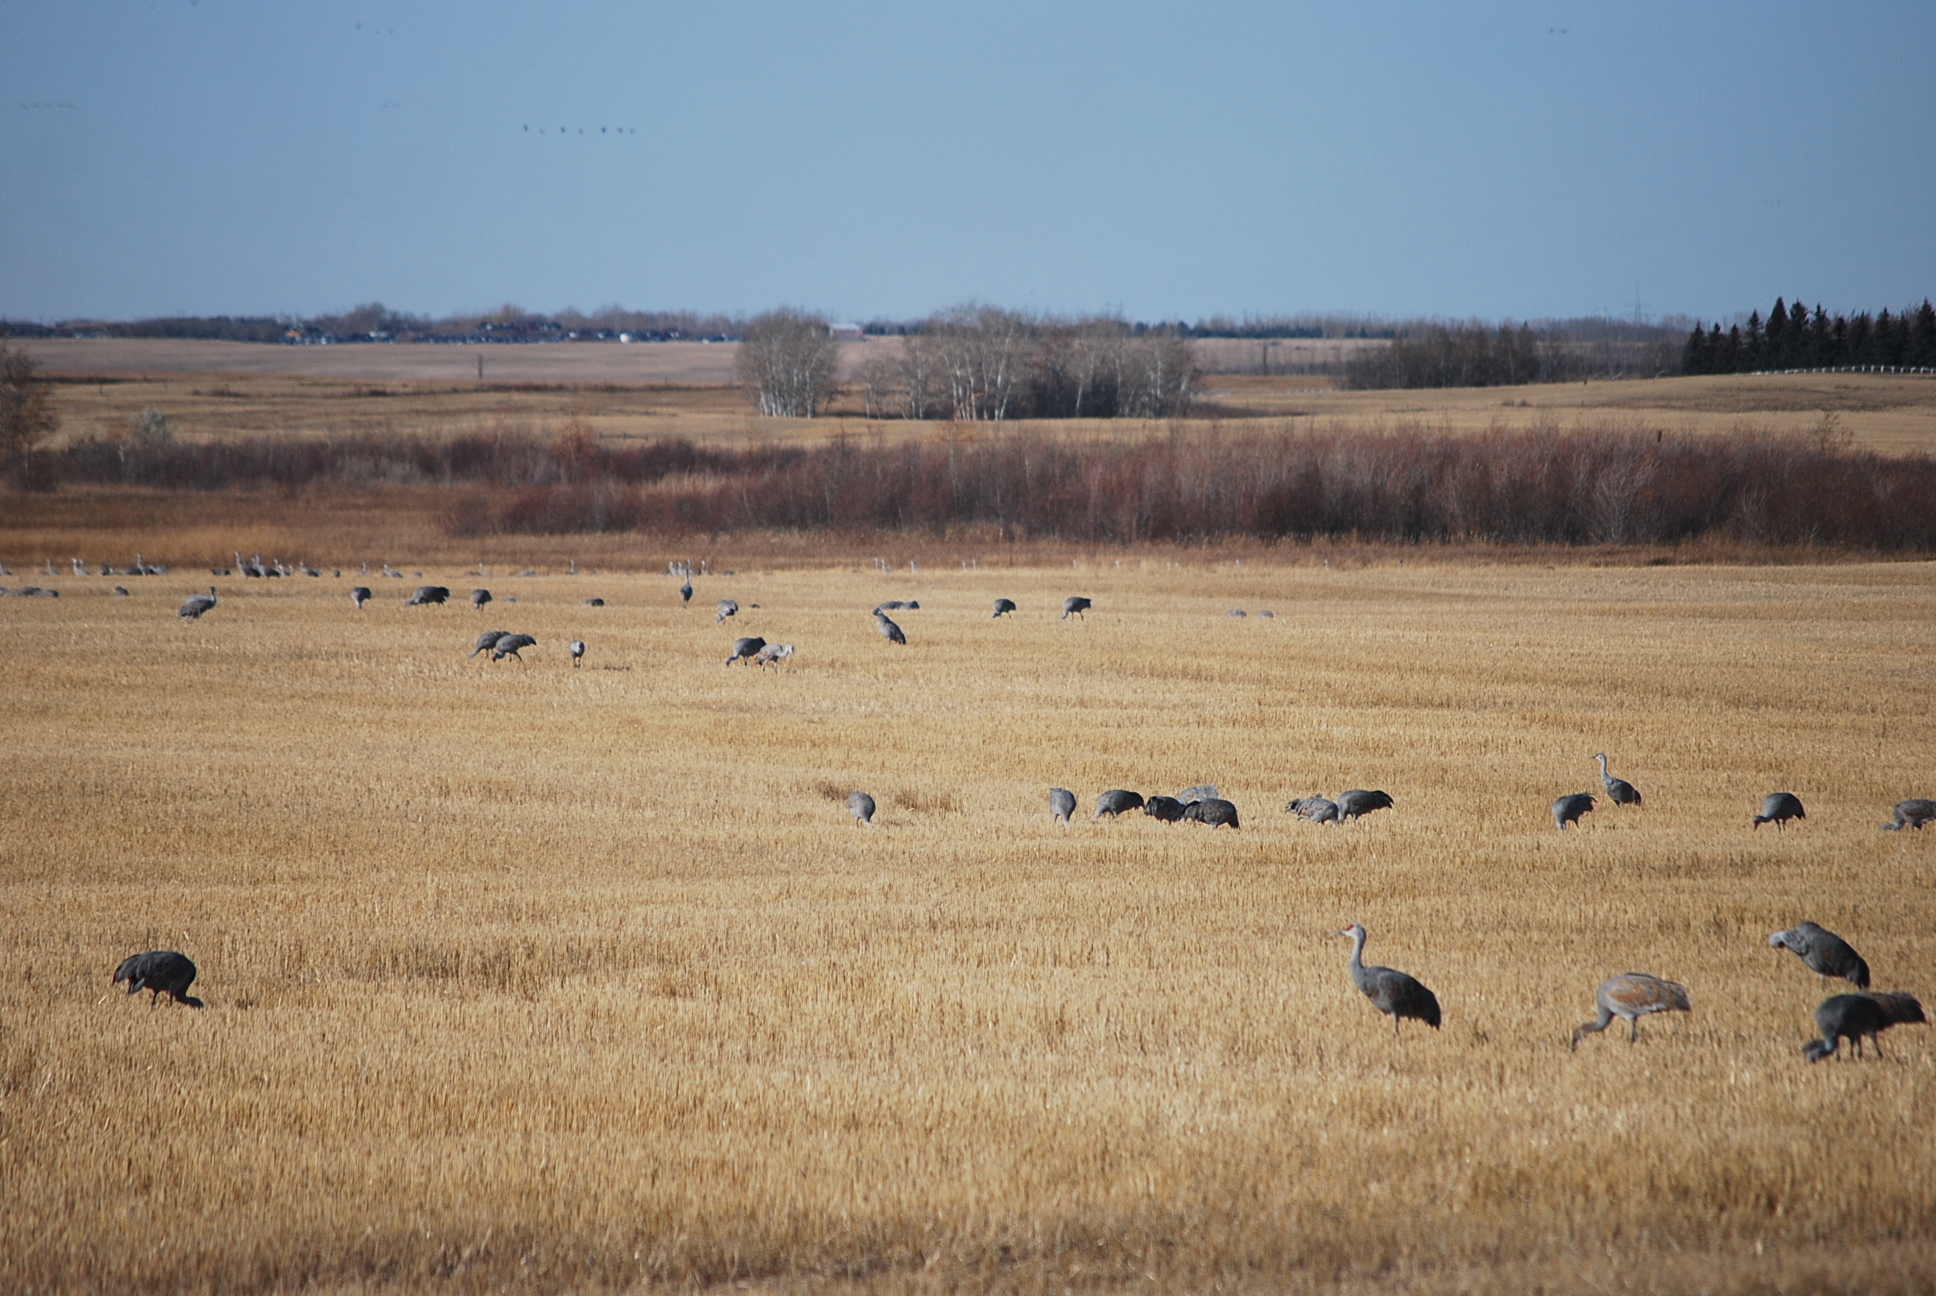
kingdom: Animalia
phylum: Chordata
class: Aves
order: Gruiformes
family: Gruidae
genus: Grus
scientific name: Grus canadensis
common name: Sandhill crane
